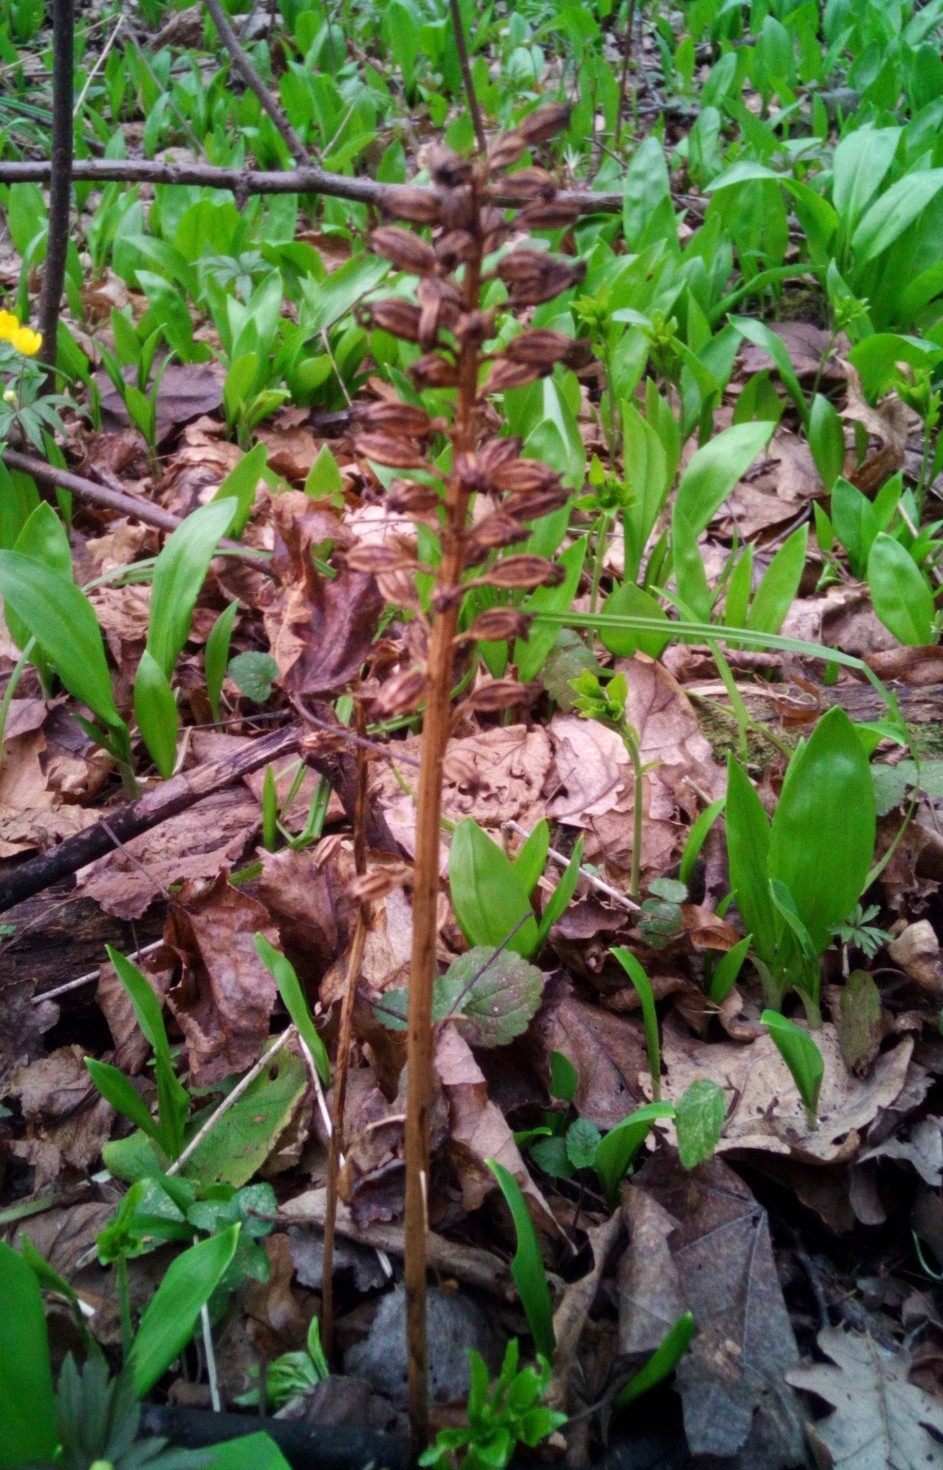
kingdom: Plantae
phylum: Tracheophyta
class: Liliopsida
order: Asparagales
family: Orchidaceae
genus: Neottia
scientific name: Neottia nidus-avis
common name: Bird's-nest orchid
